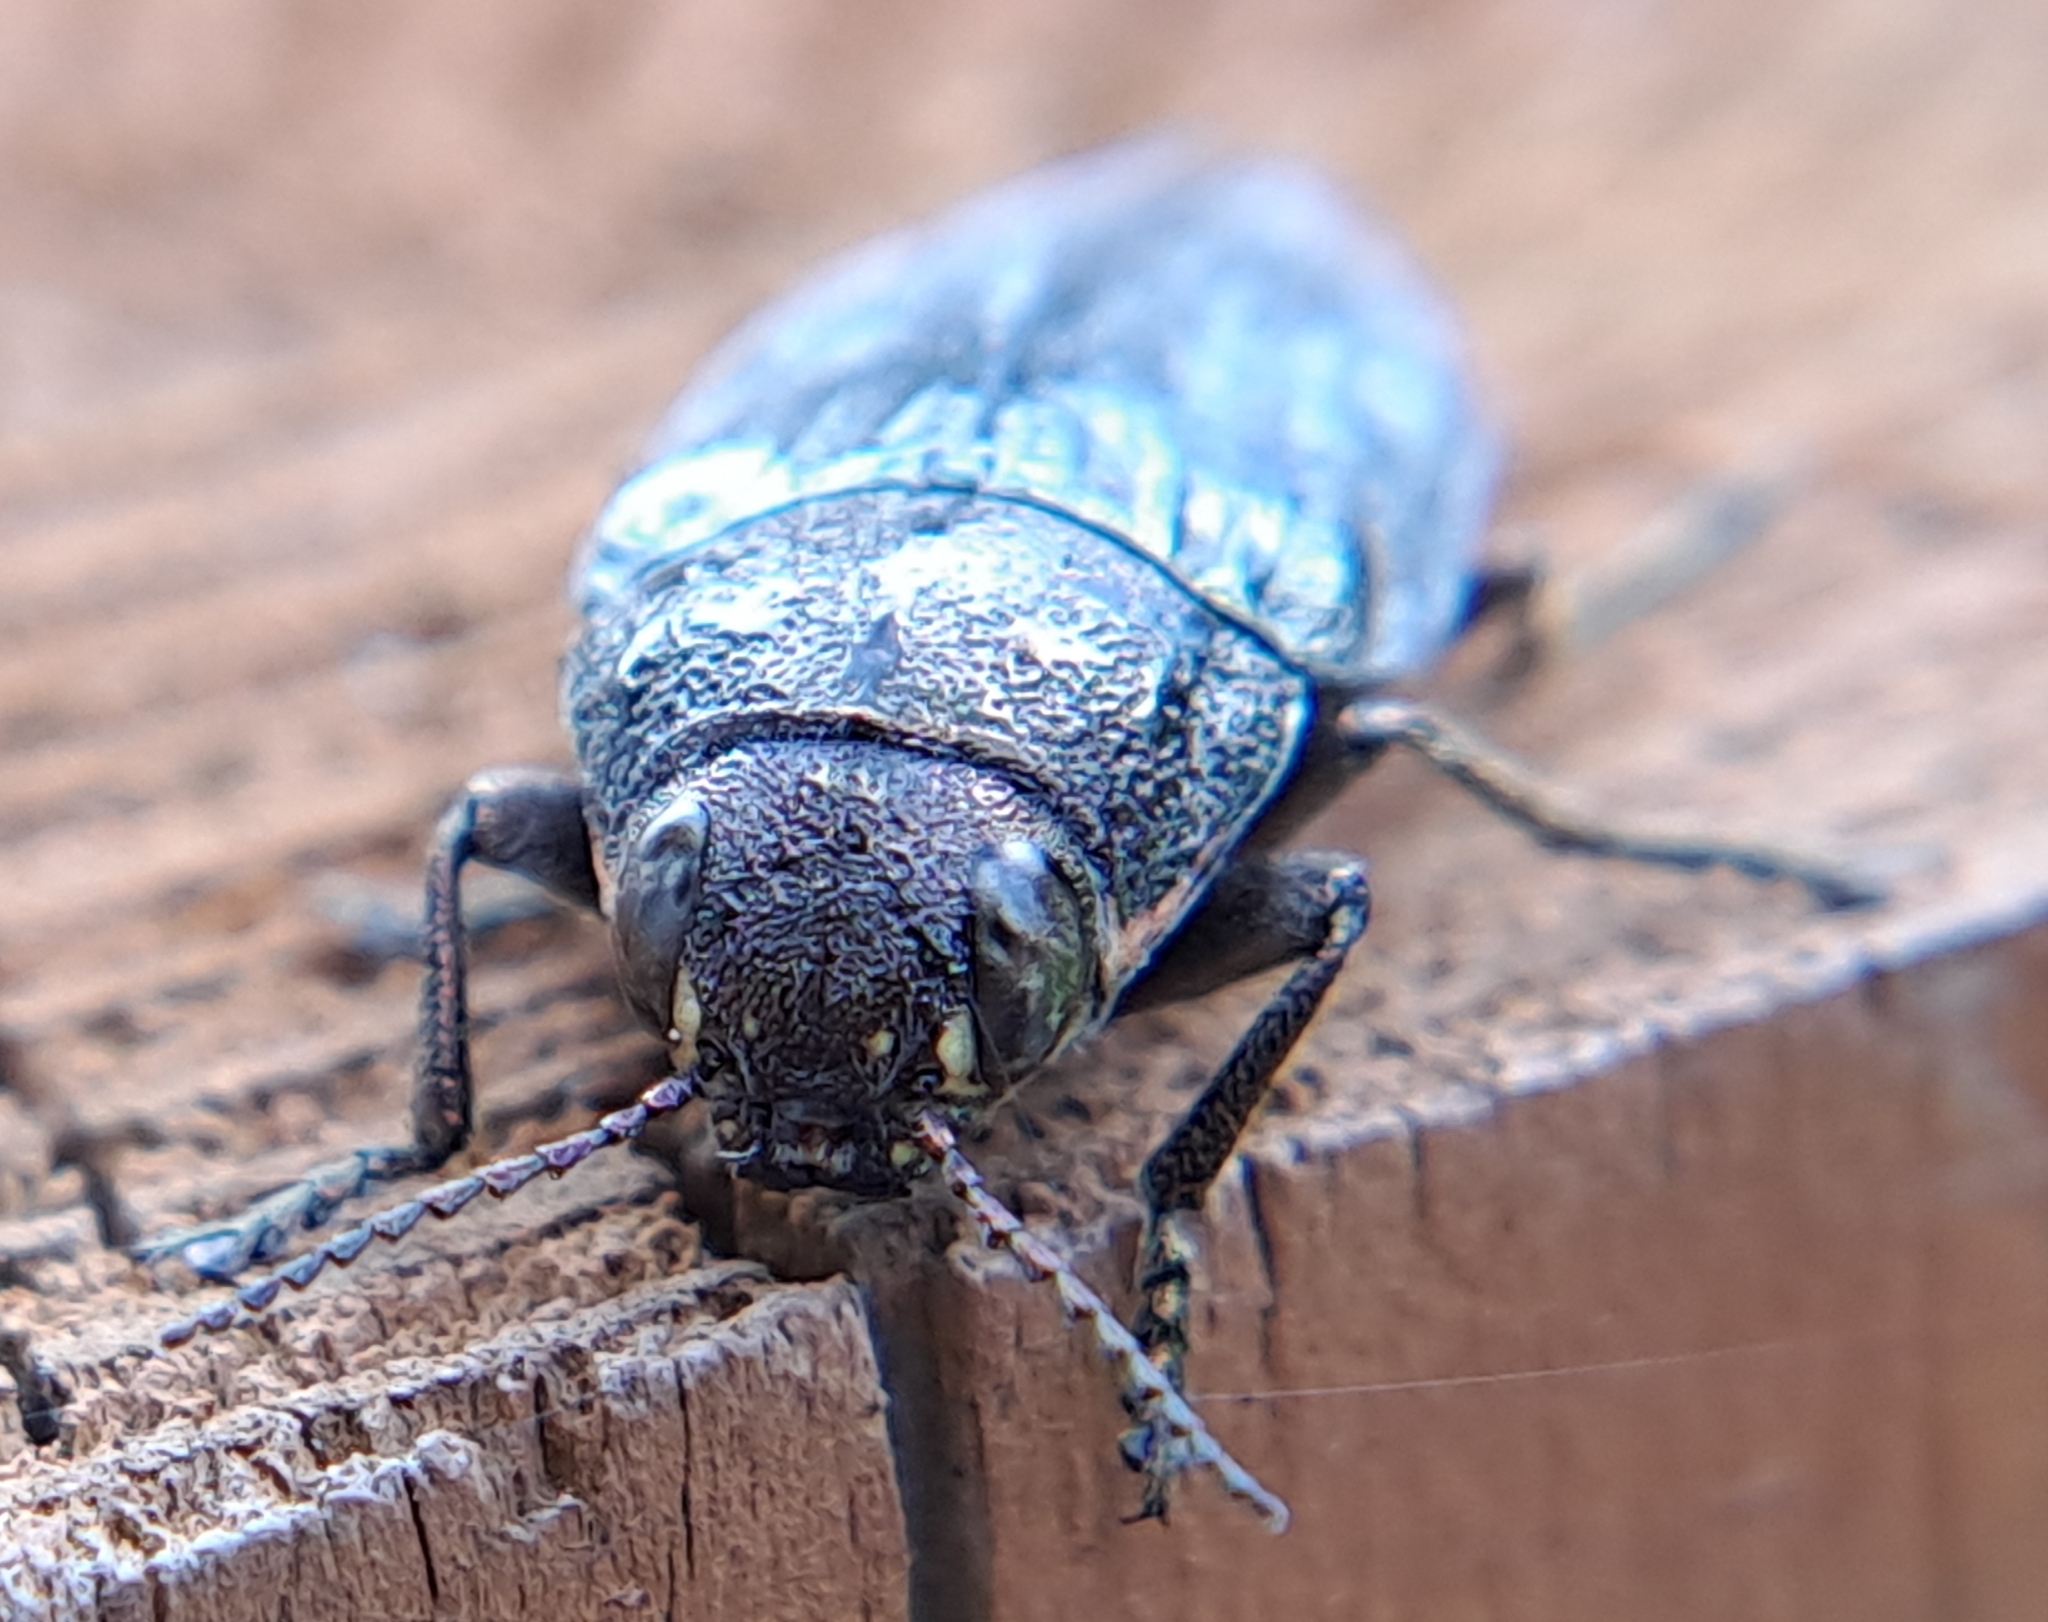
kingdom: Animalia
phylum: Arthropoda
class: Insecta
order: Coleoptera
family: Buprestidae
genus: Buprestis
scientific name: Buprestis maculativentris
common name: Spotted-belly buprestid beetle
